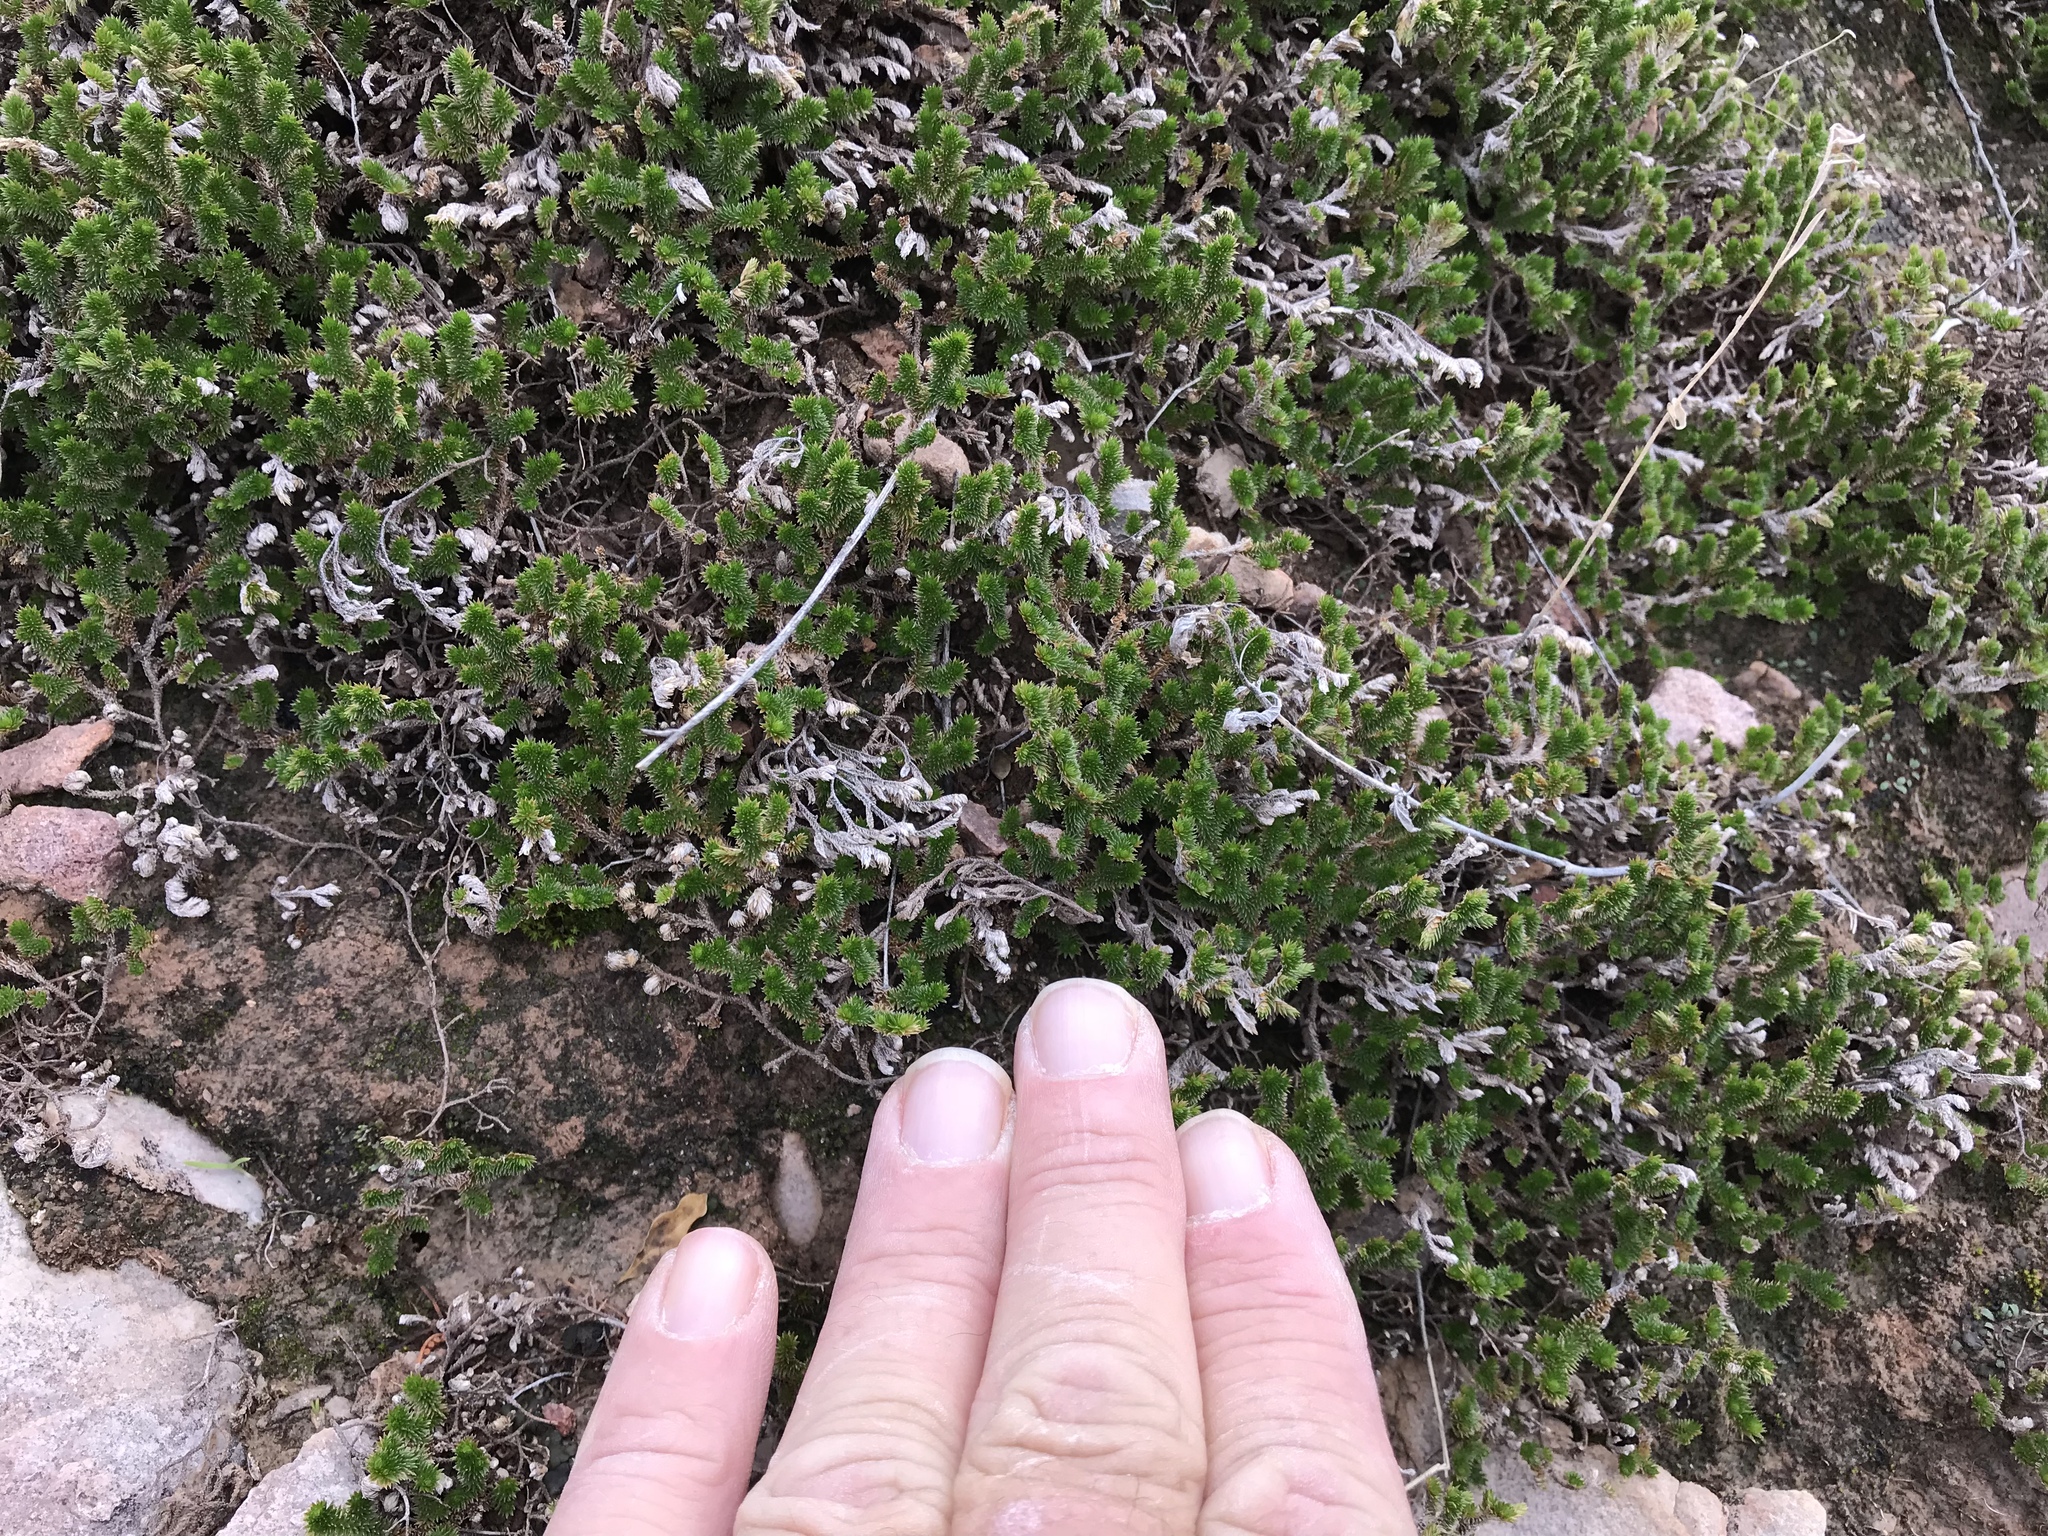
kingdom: Plantae
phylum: Tracheophyta
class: Lycopodiopsida
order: Selaginellales
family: Selaginellaceae
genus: Selaginella
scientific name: Selaginella arizonica
